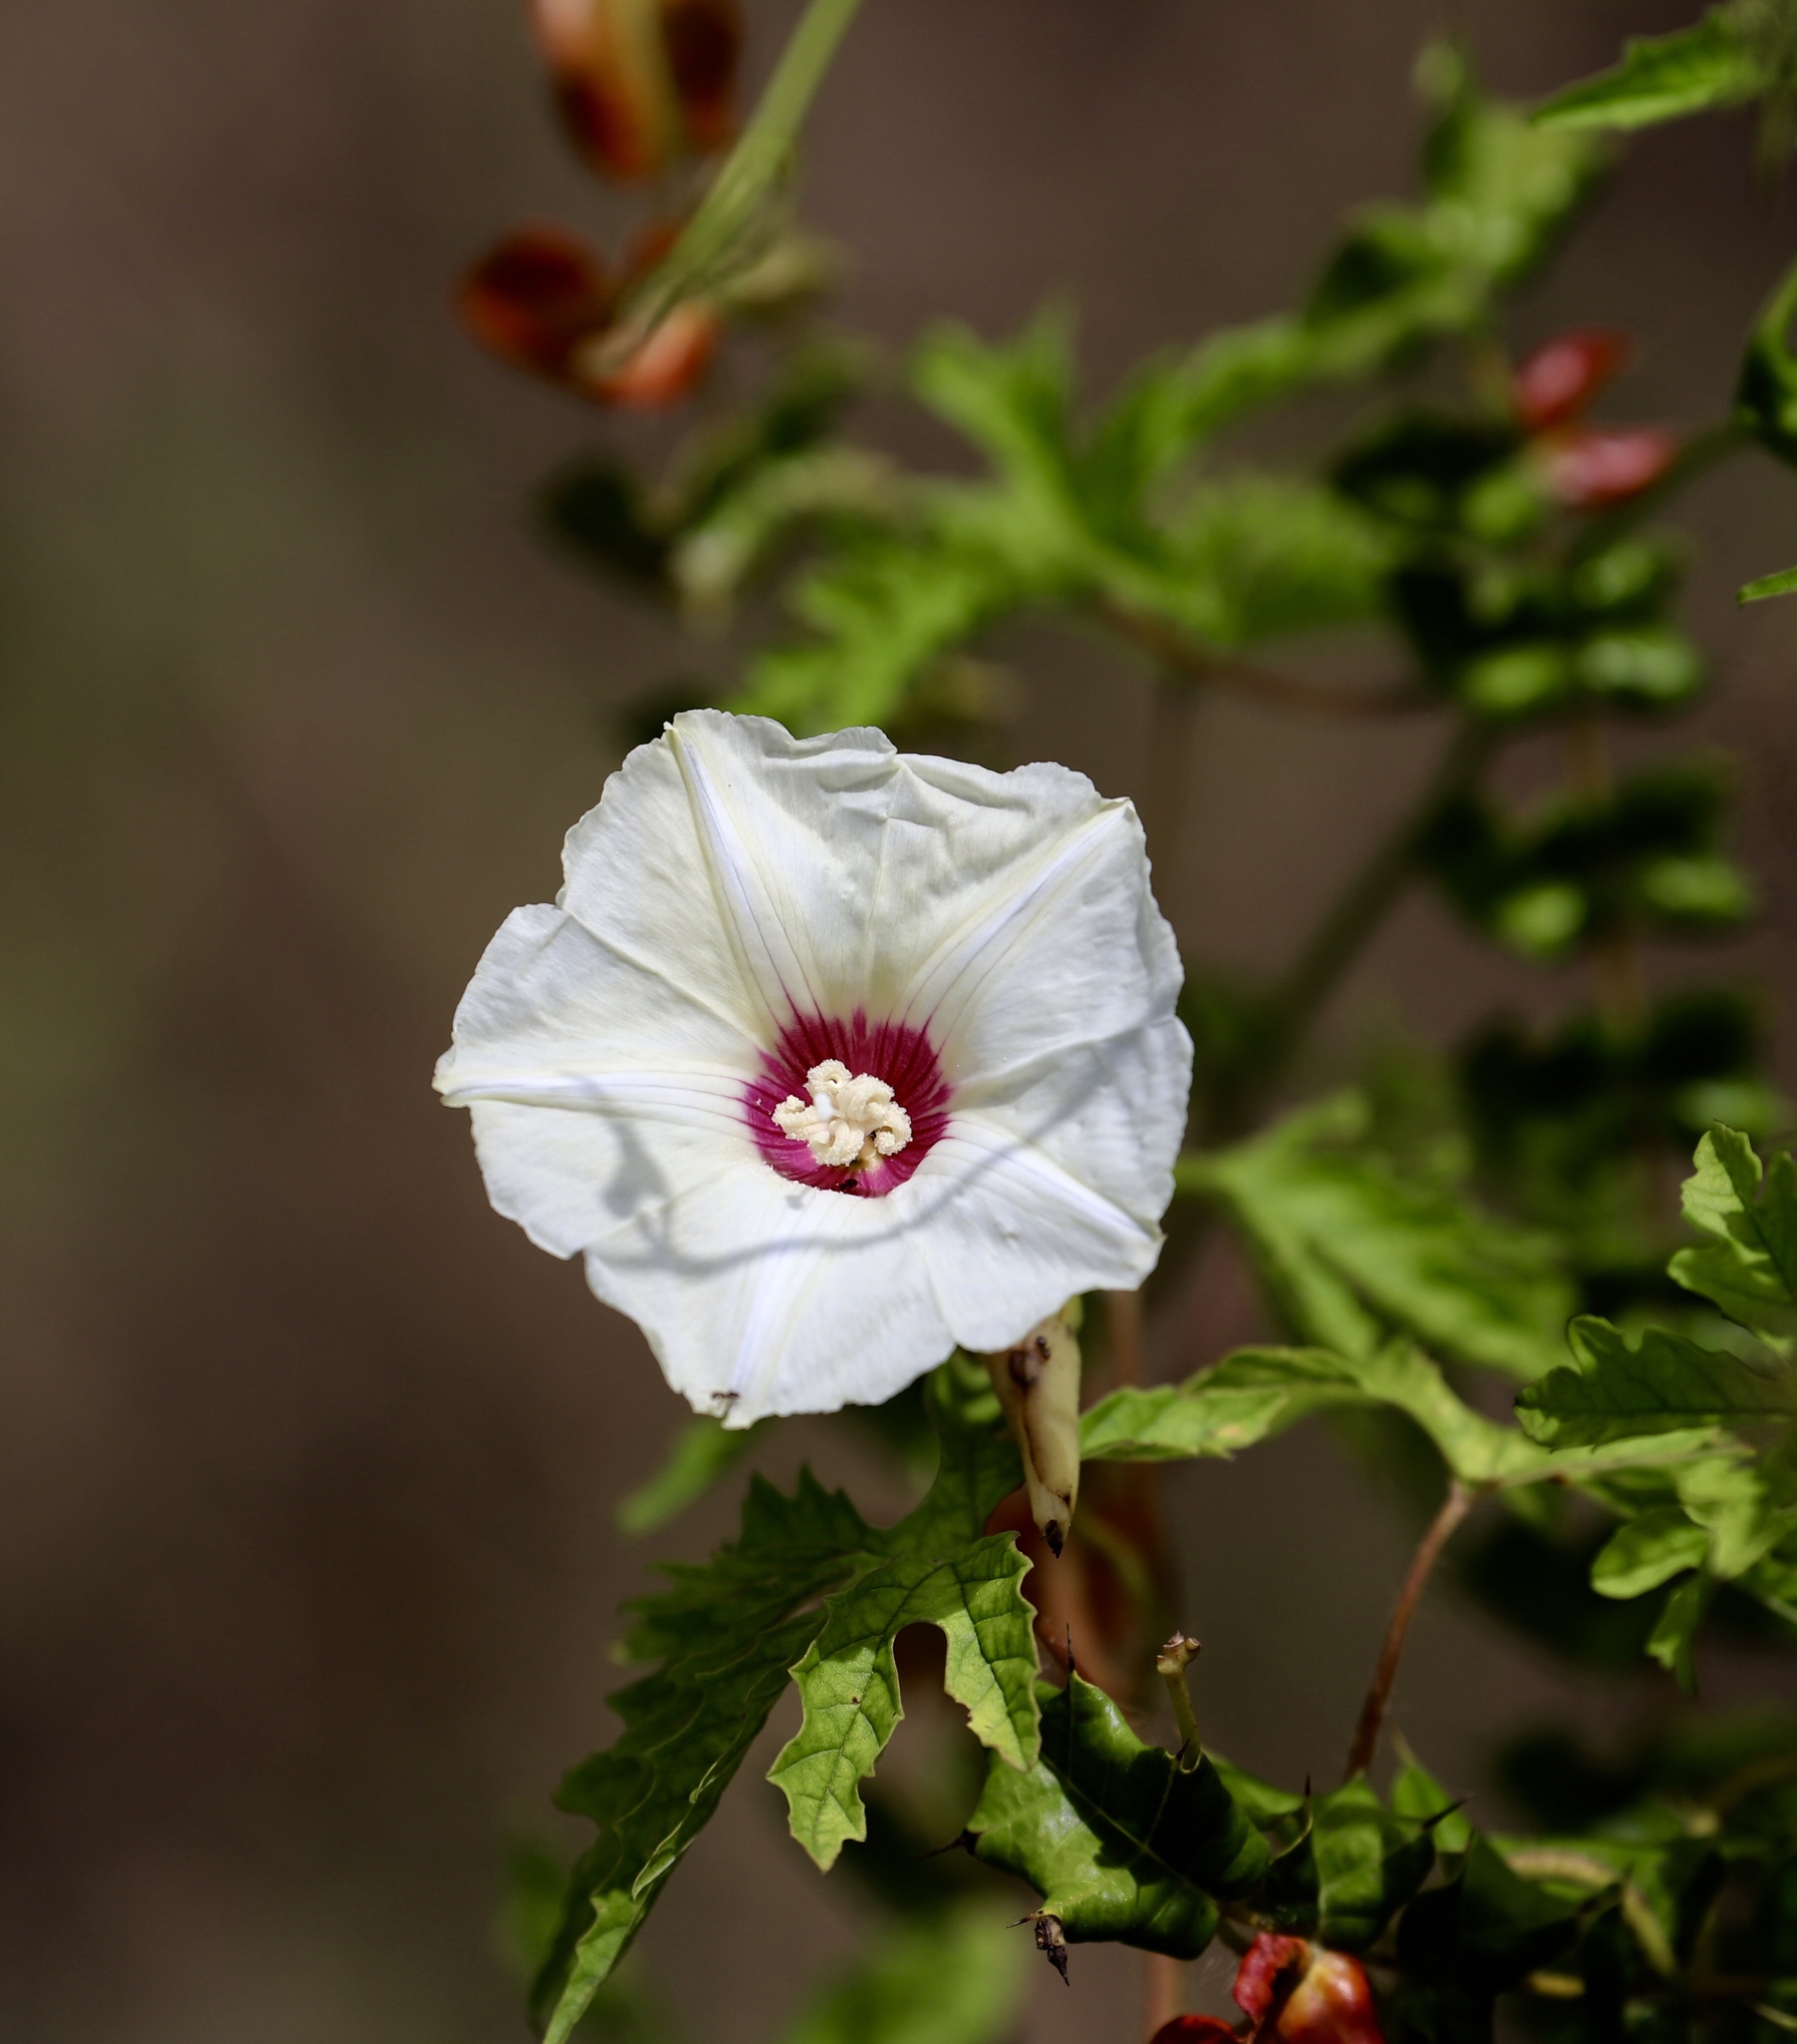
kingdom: Plantae
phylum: Tracheophyta
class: Magnoliopsida
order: Solanales
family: Convolvulaceae
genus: Distimake
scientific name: Distimake dissectus
